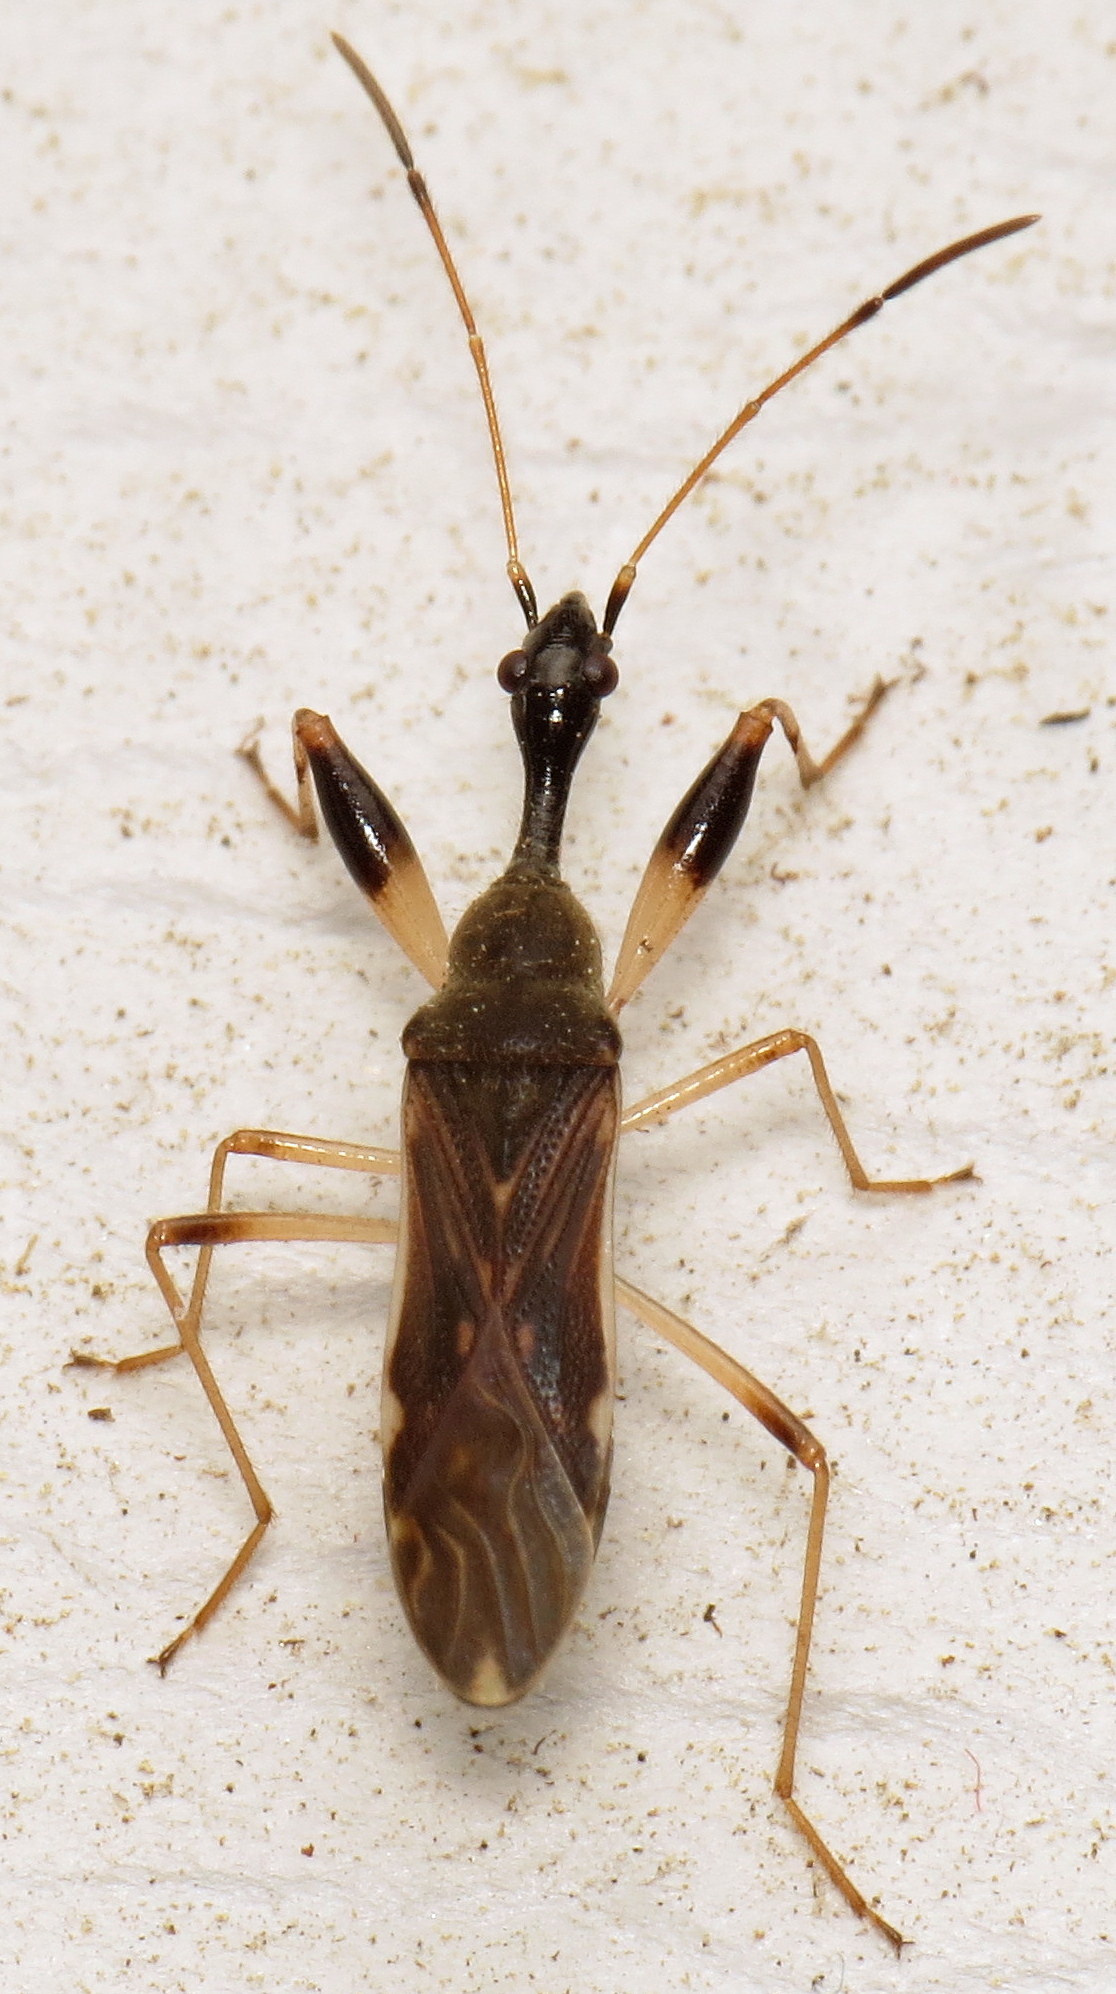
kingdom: Animalia
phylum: Arthropoda
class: Insecta
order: Hemiptera
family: Rhyparochromidae
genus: Myodocha
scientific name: Myodocha serripes
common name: Long-necked seed bug
